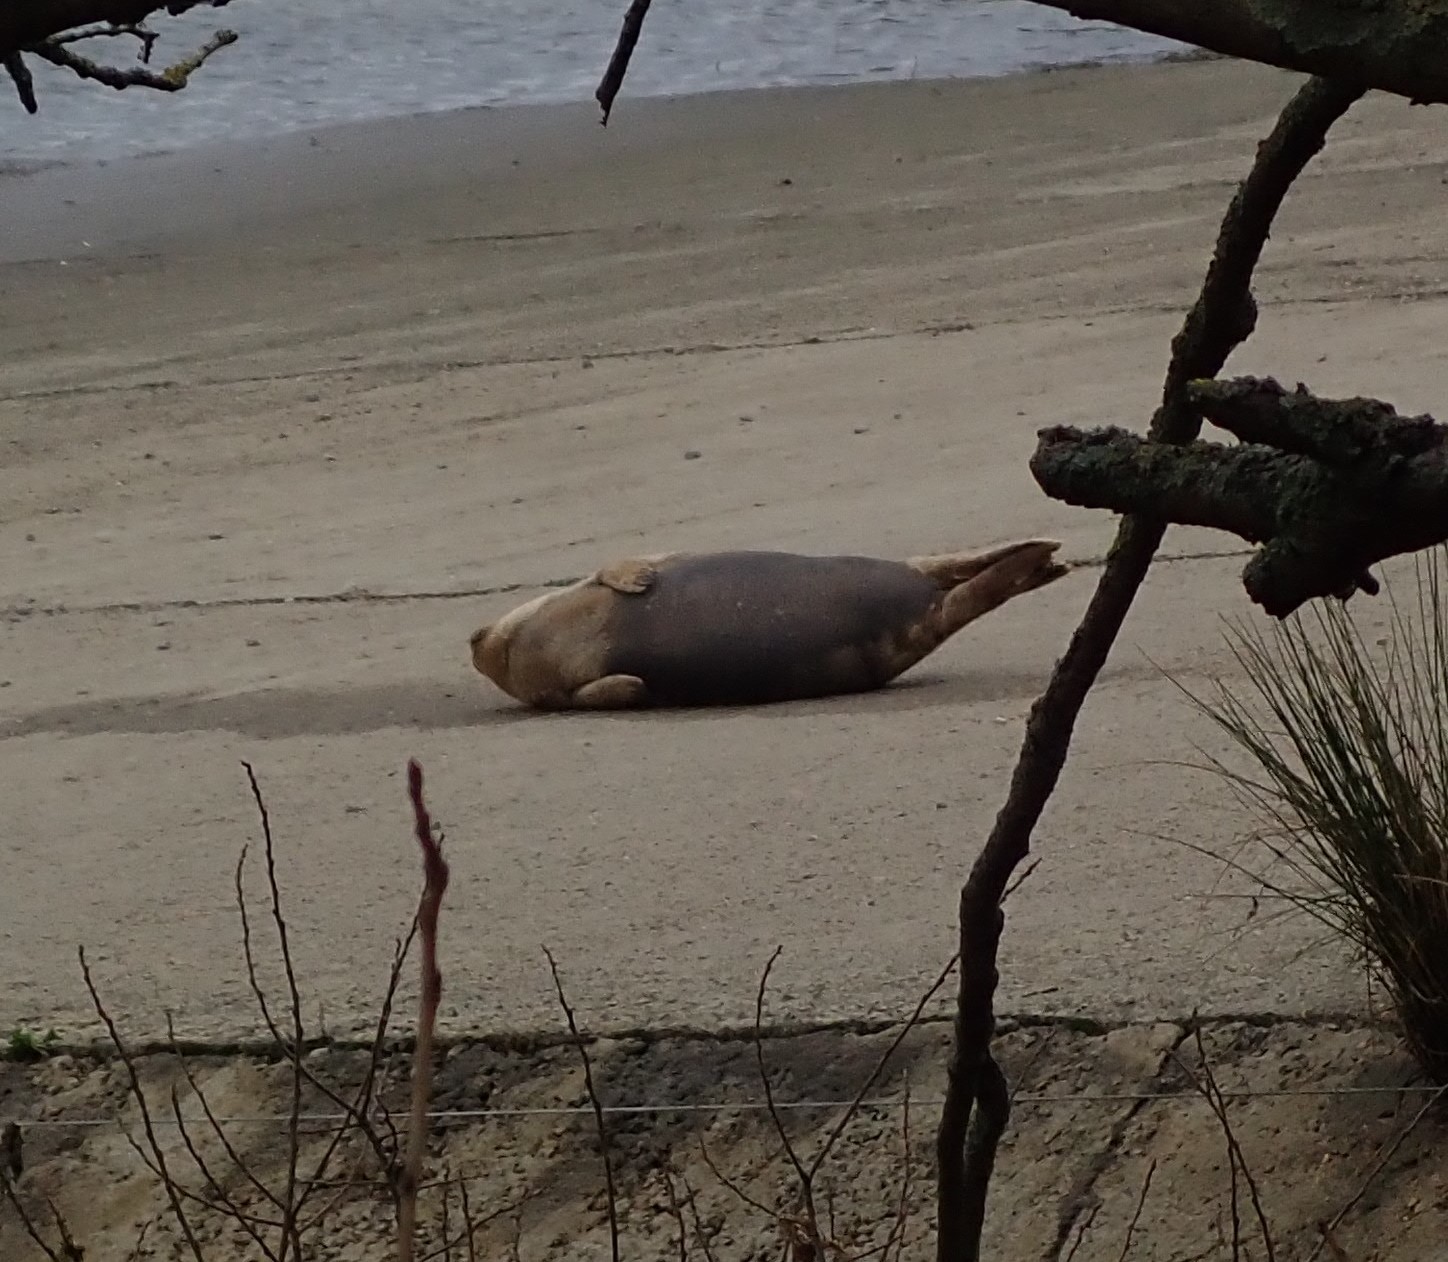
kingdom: Animalia
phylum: Chordata
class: Mammalia
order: Carnivora
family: Phocidae
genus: Phoca
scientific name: Phoca vitulina
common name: Harbor seal
